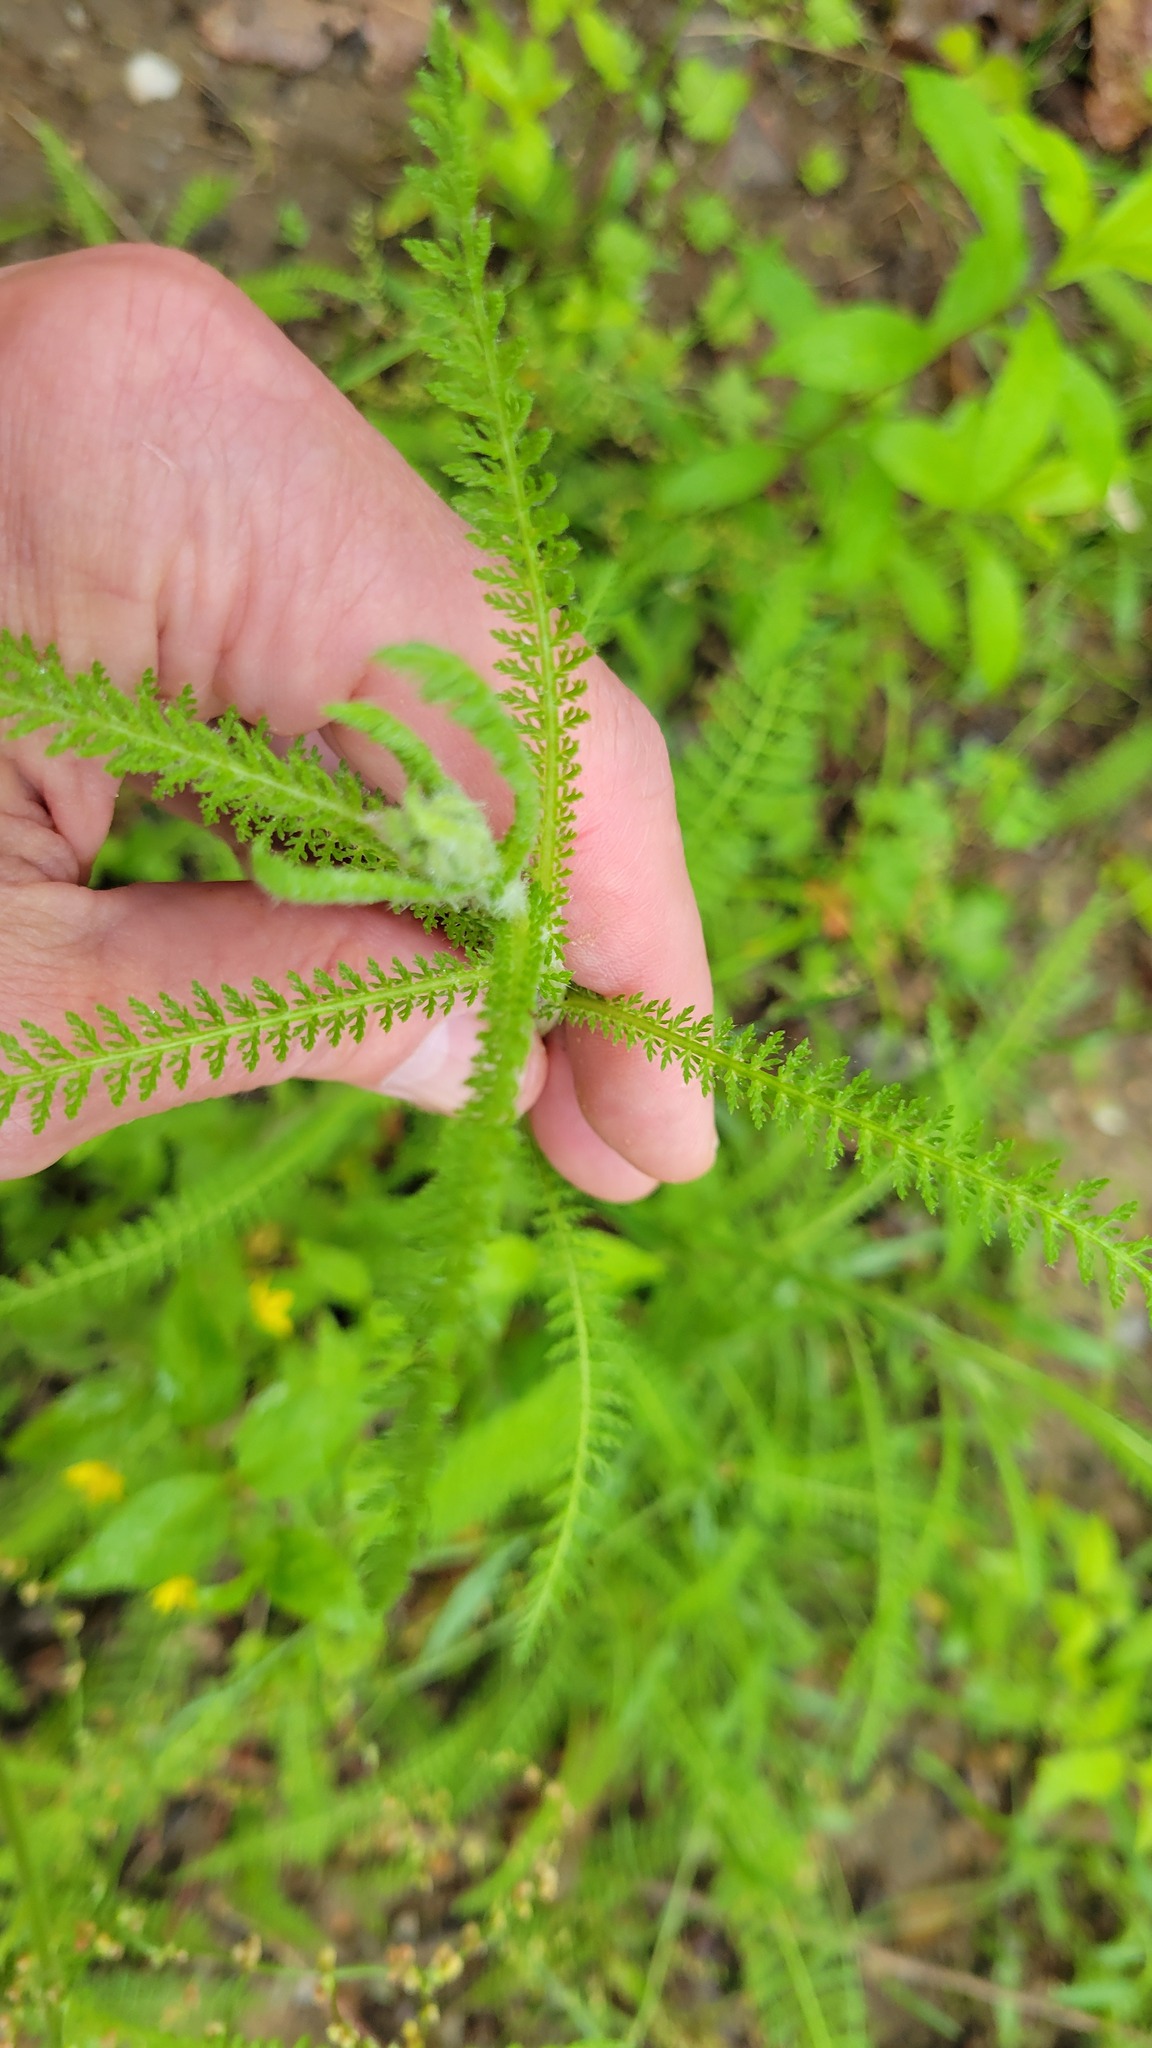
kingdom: Plantae
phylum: Tracheophyta
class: Magnoliopsida
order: Asterales
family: Asteraceae
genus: Achillea
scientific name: Achillea millefolium
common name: Yarrow
